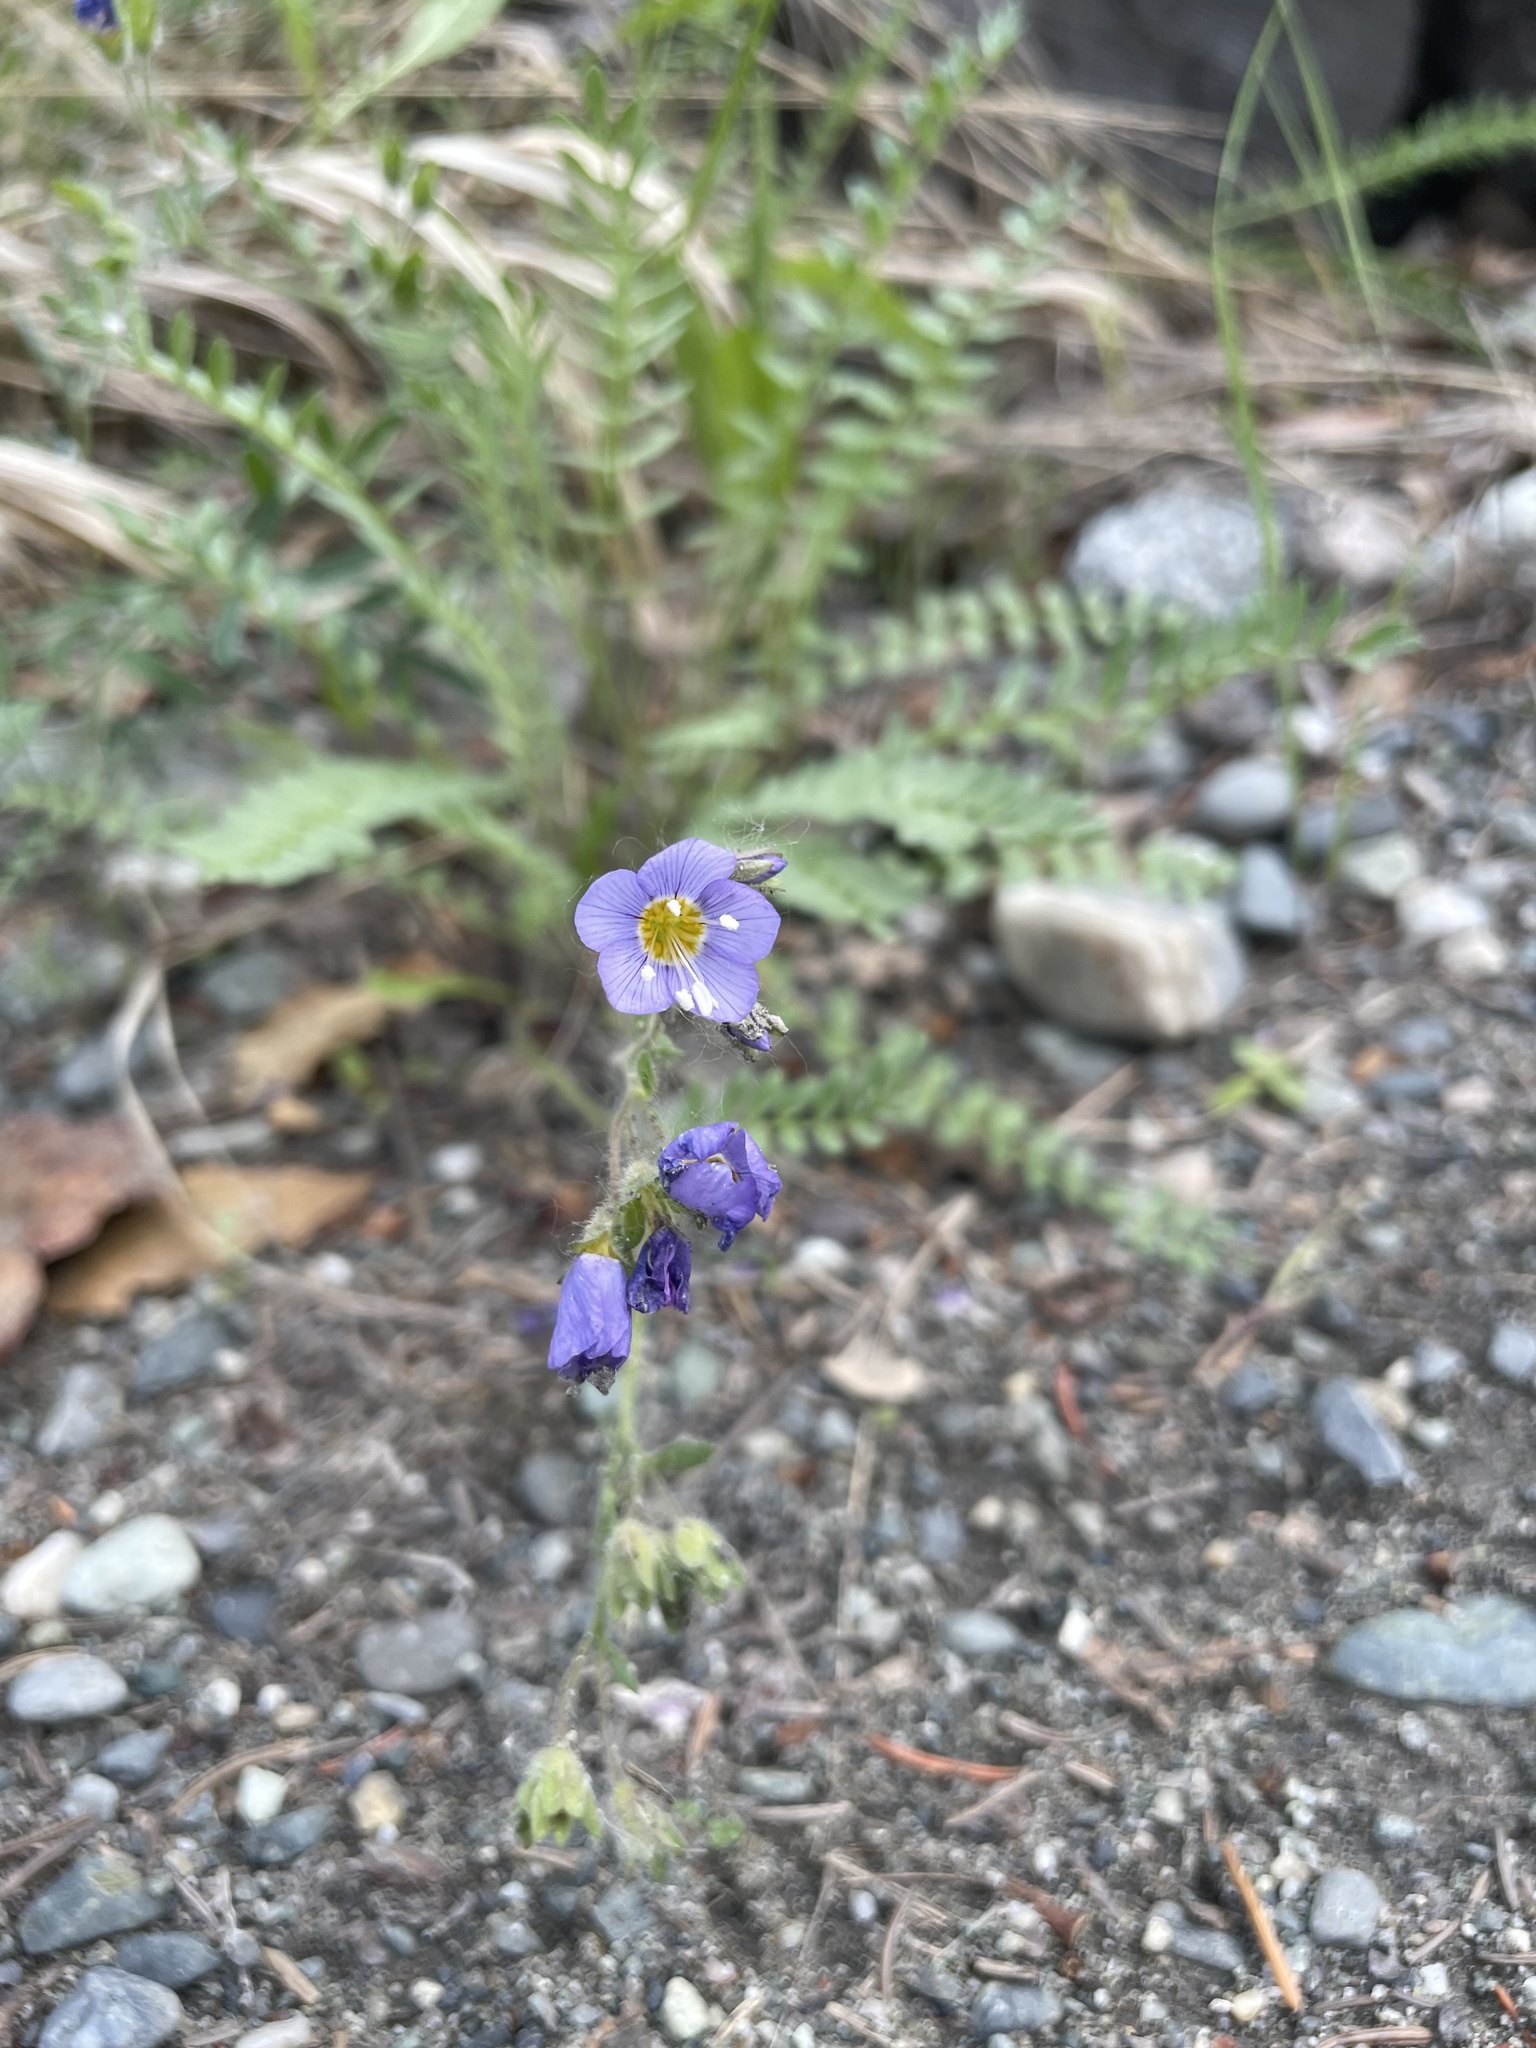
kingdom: Plantae
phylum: Tracheophyta
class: Magnoliopsida
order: Ericales
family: Polemoniaceae
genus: Polemonium
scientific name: Polemonium pulcherrimum
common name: Short jacob's-ladder
